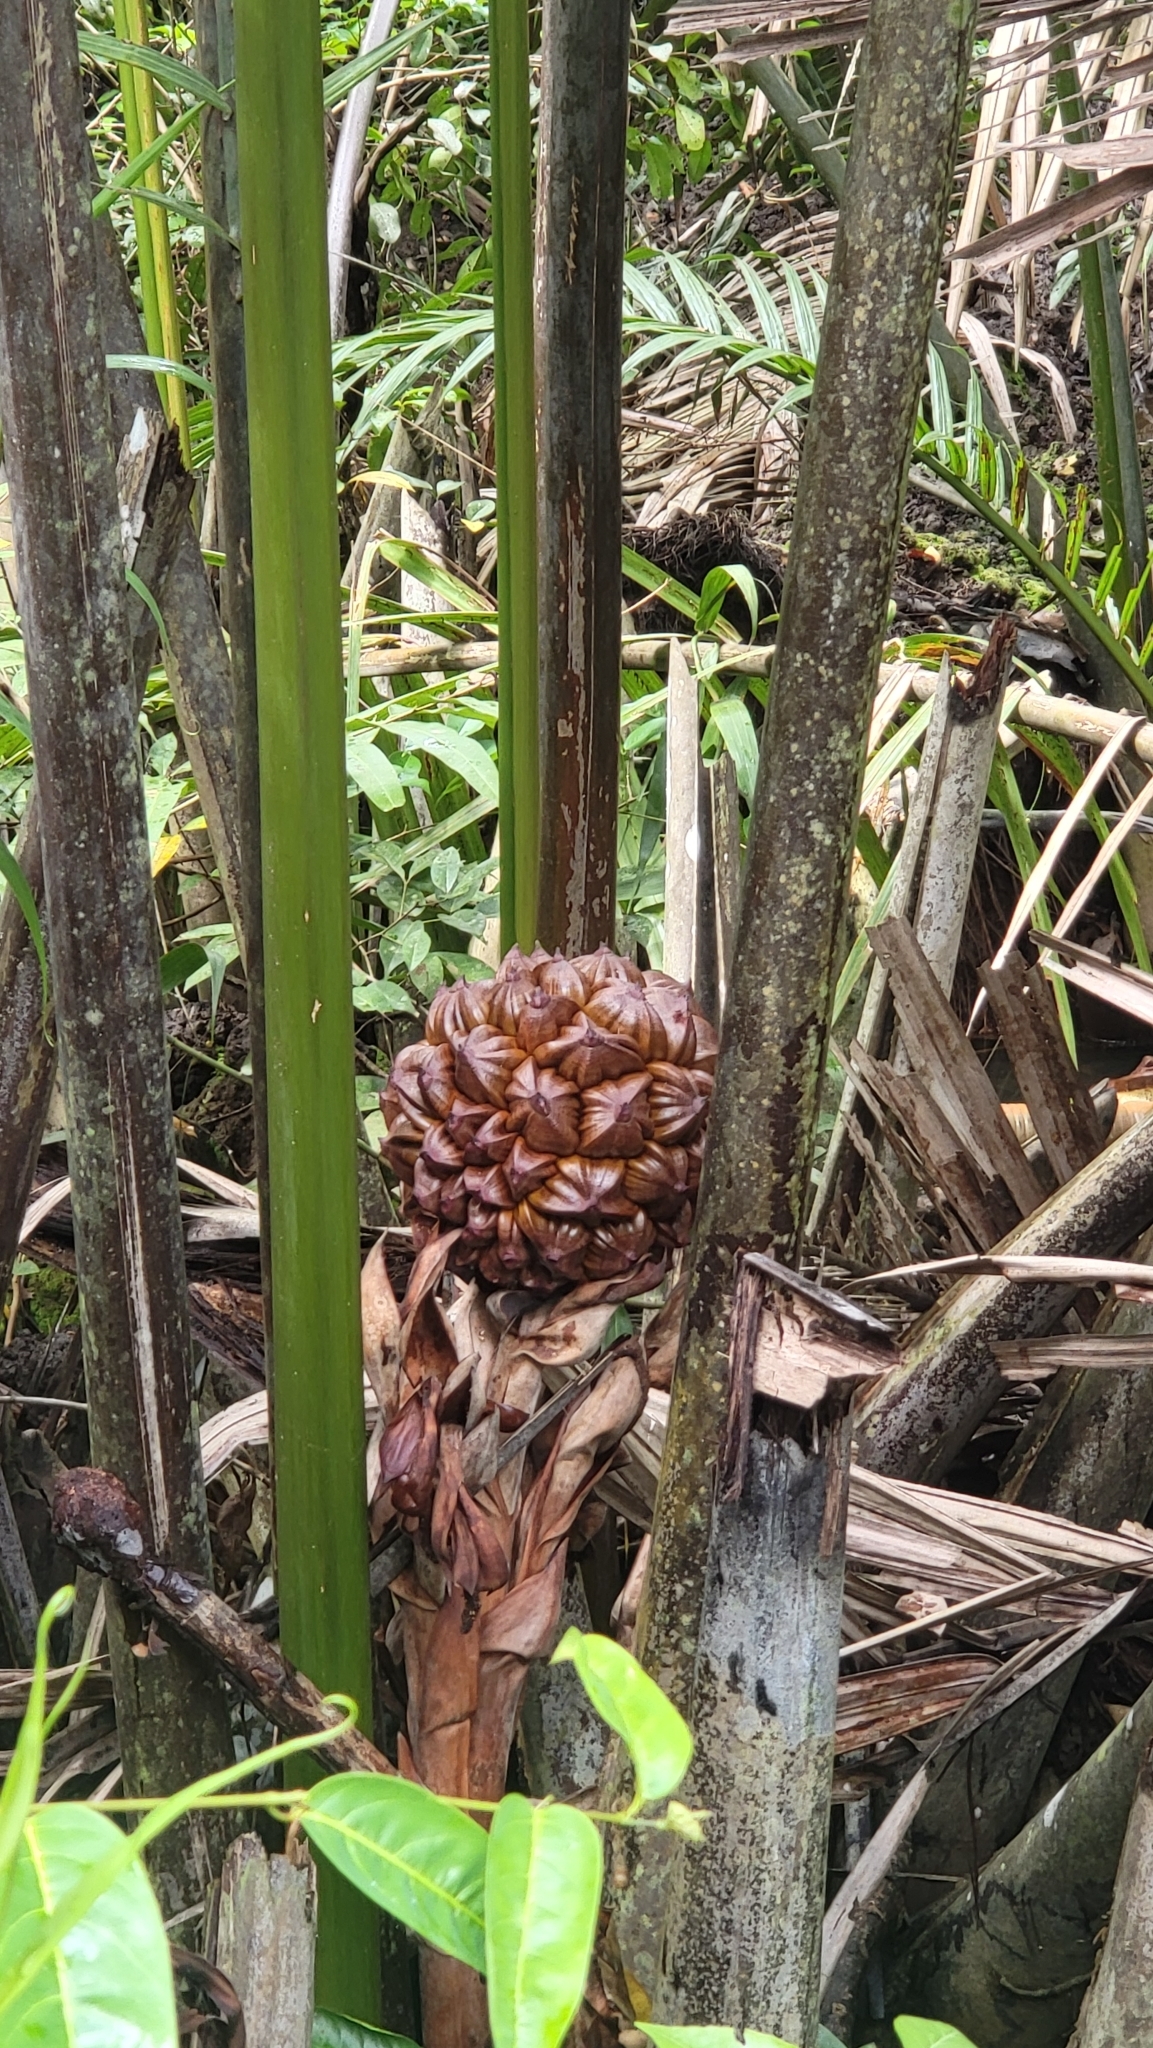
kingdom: Plantae
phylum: Tracheophyta
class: Liliopsida
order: Arecales
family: Arecaceae
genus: Nypa
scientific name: Nypa fruticans
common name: Mangrove palm
